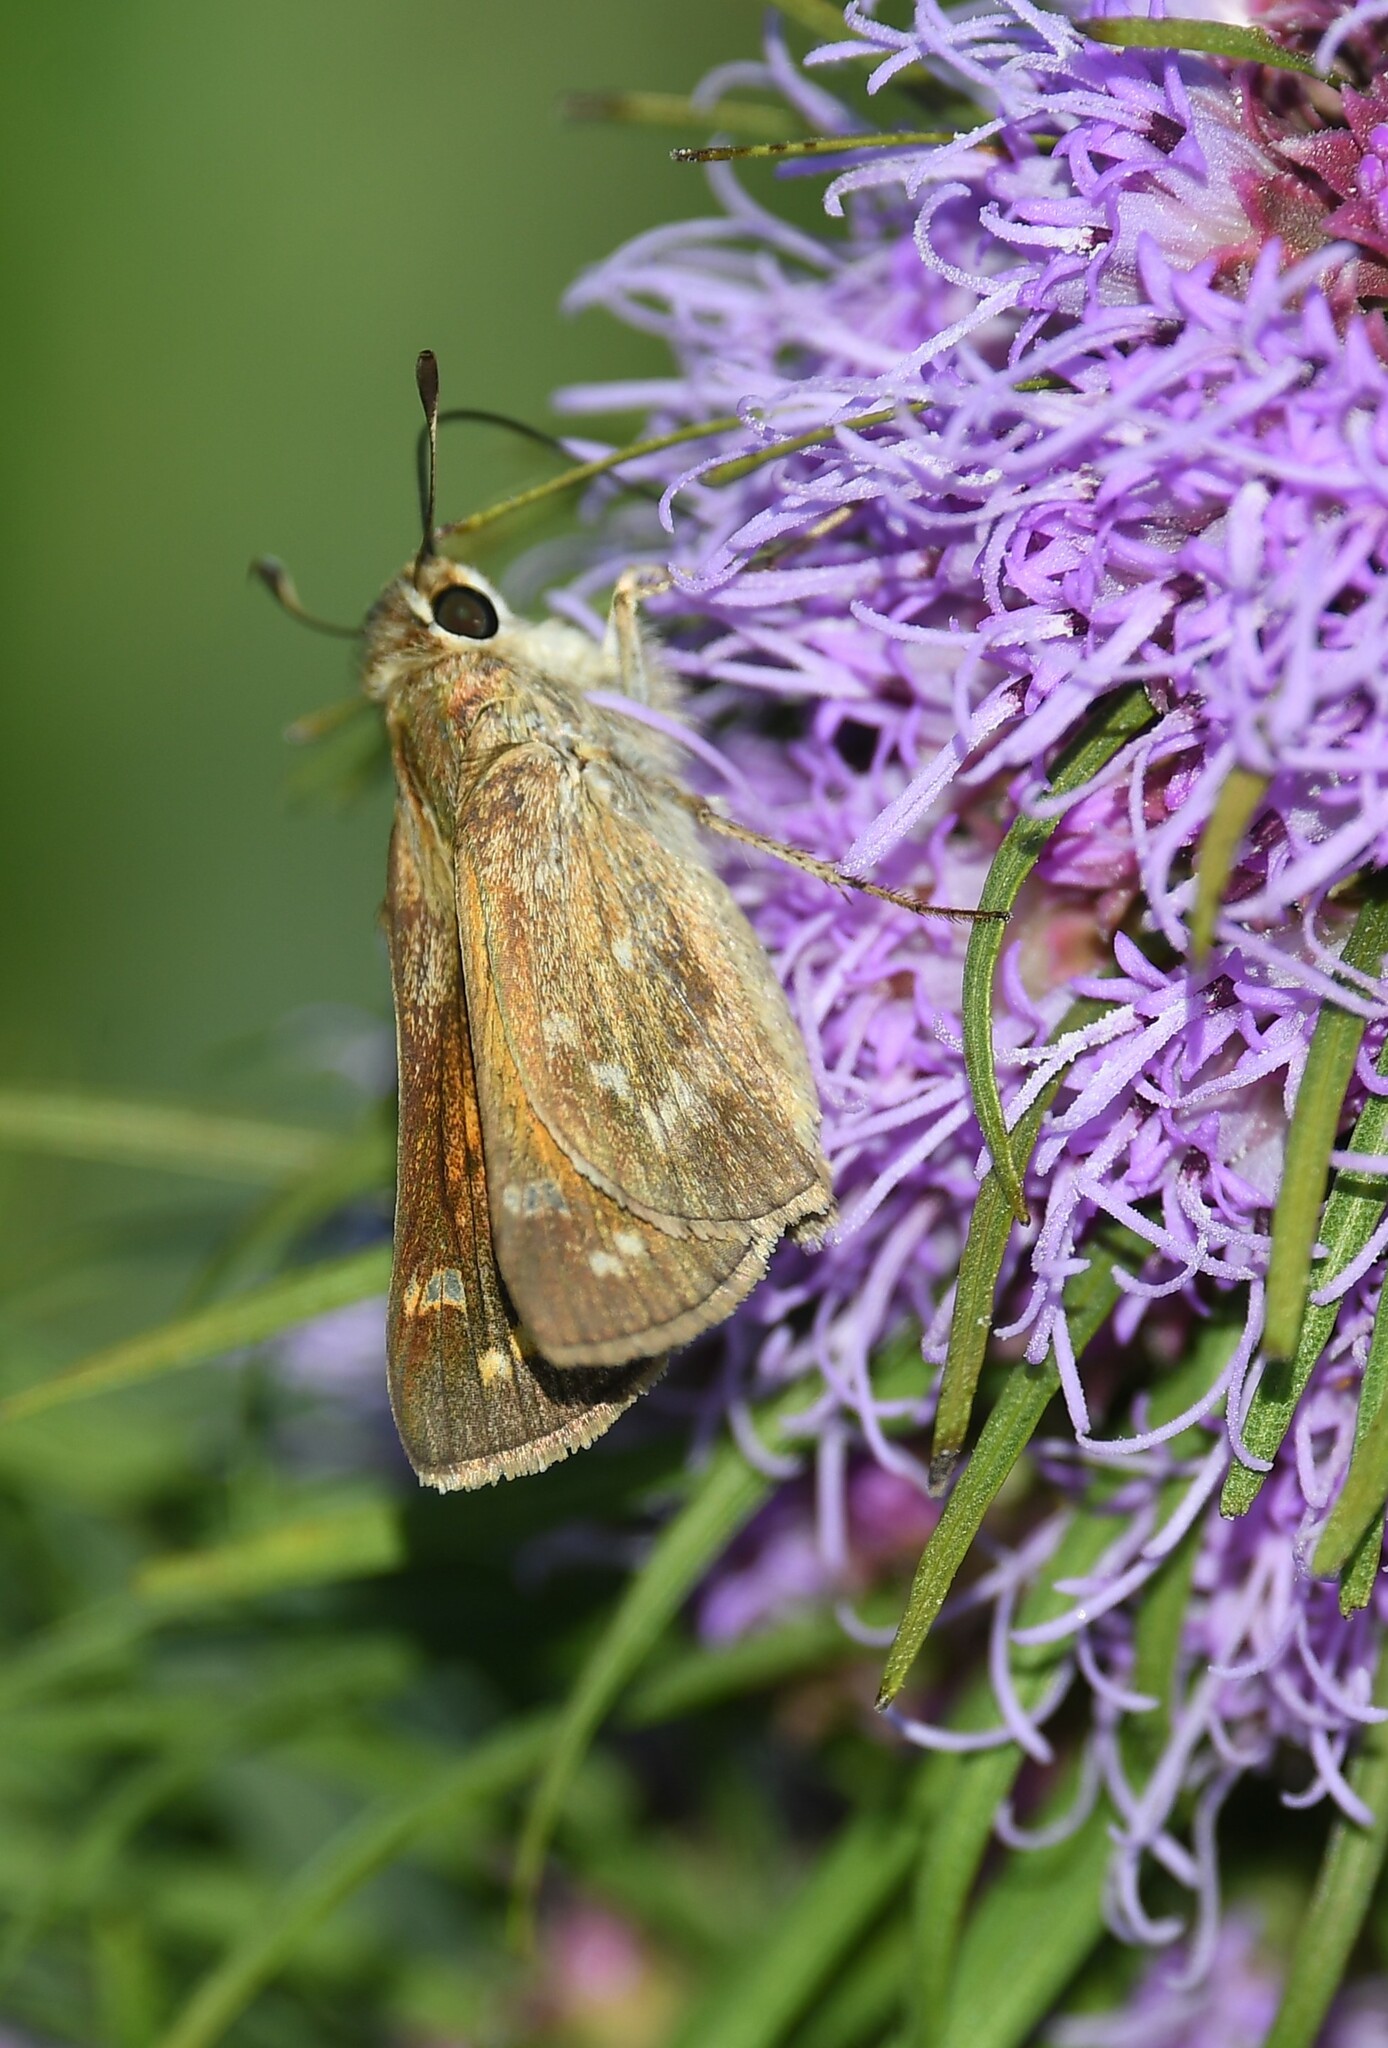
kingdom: Animalia
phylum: Arthropoda
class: Insecta
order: Lepidoptera
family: Hesperiidae
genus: Atalopedes
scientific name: Atalopedes
